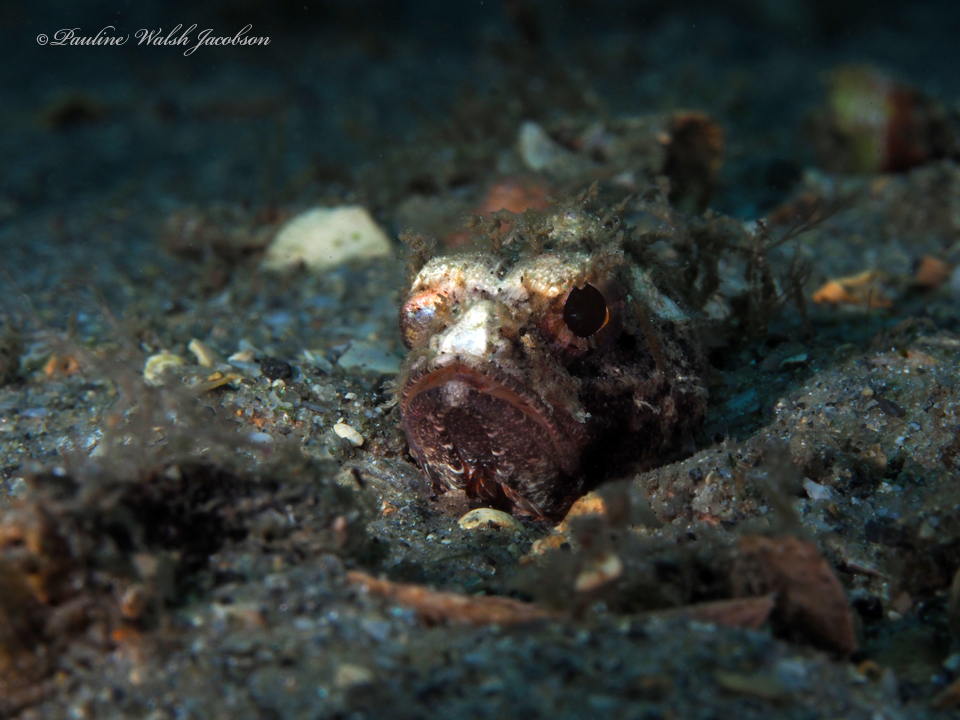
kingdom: Animalia
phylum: Chordata
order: Scorpaeniformes
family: Scorpaenidae
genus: Scorpaena
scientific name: Scorpaena inermis
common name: Mushroom scorpionfish
